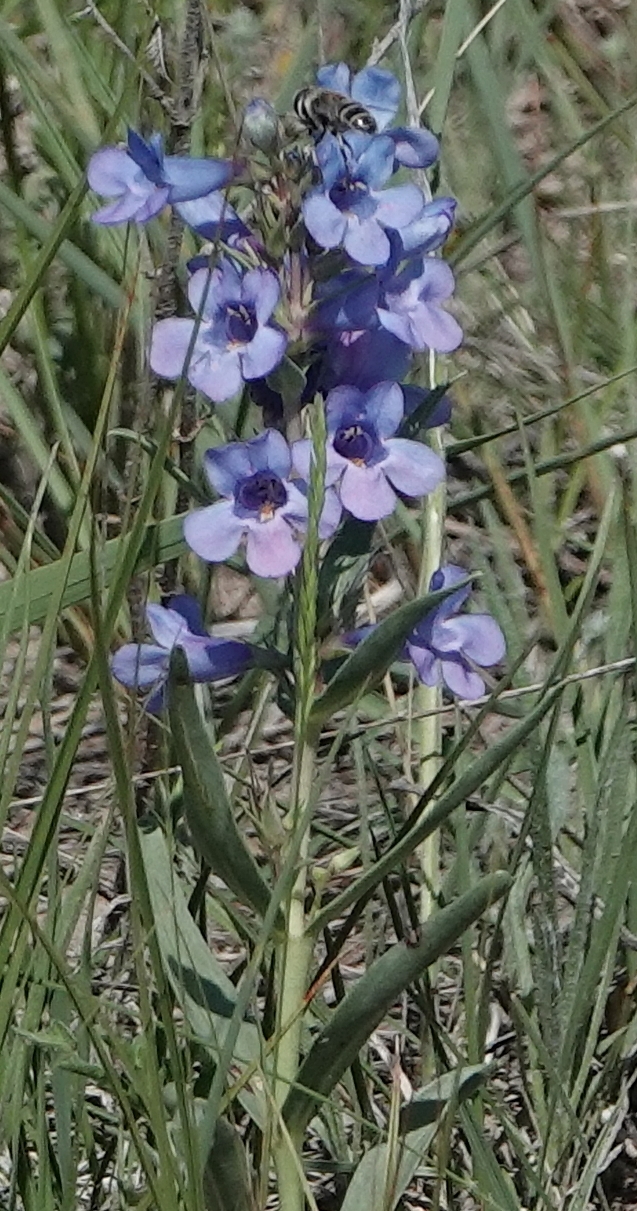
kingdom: Plantae
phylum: Tracheophyta
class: Magnoliopsida
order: Lamiales
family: Plantaginaceae
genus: Penstemon
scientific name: Penstemon angustifolius
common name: Narrow beardtongue
